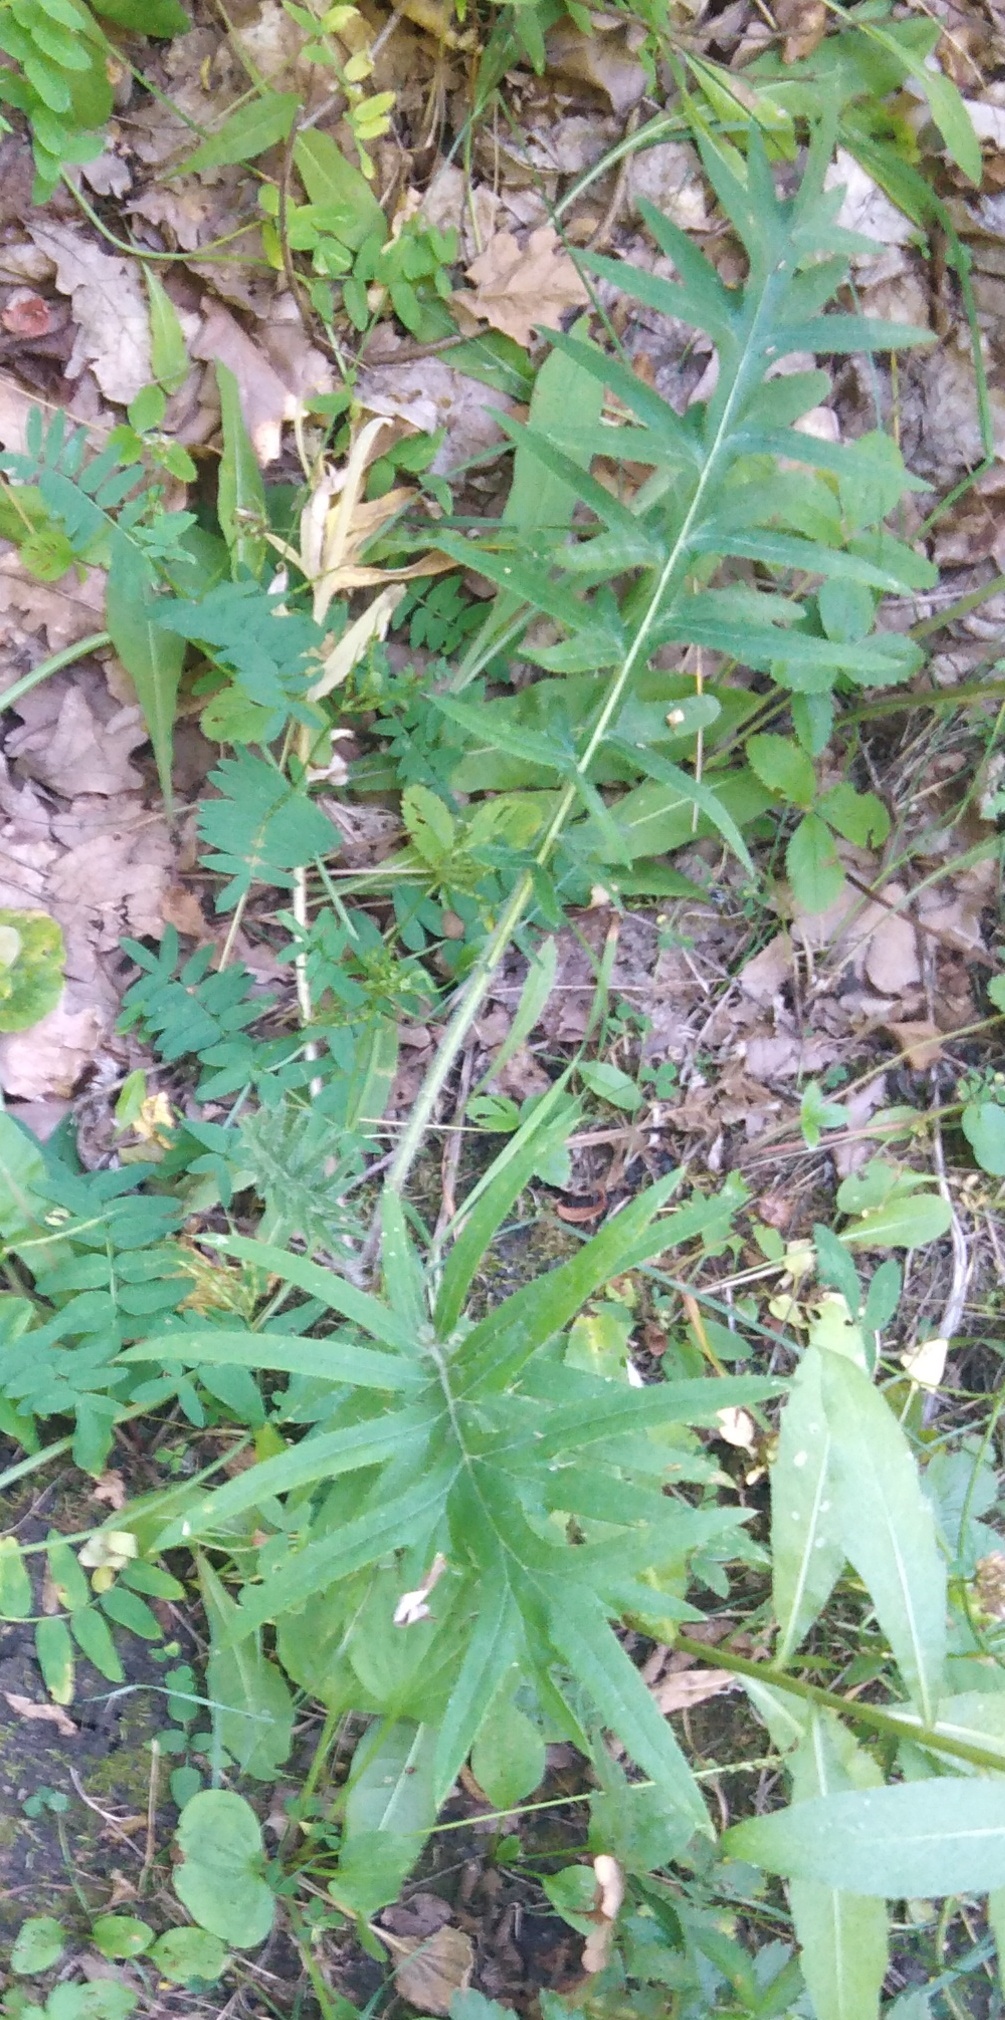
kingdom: Plantae
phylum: Tracheophyta
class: Magnoliopsida
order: Asterales
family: Asteraceae
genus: Lophiolepis
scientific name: Lophiolepis ciliata
